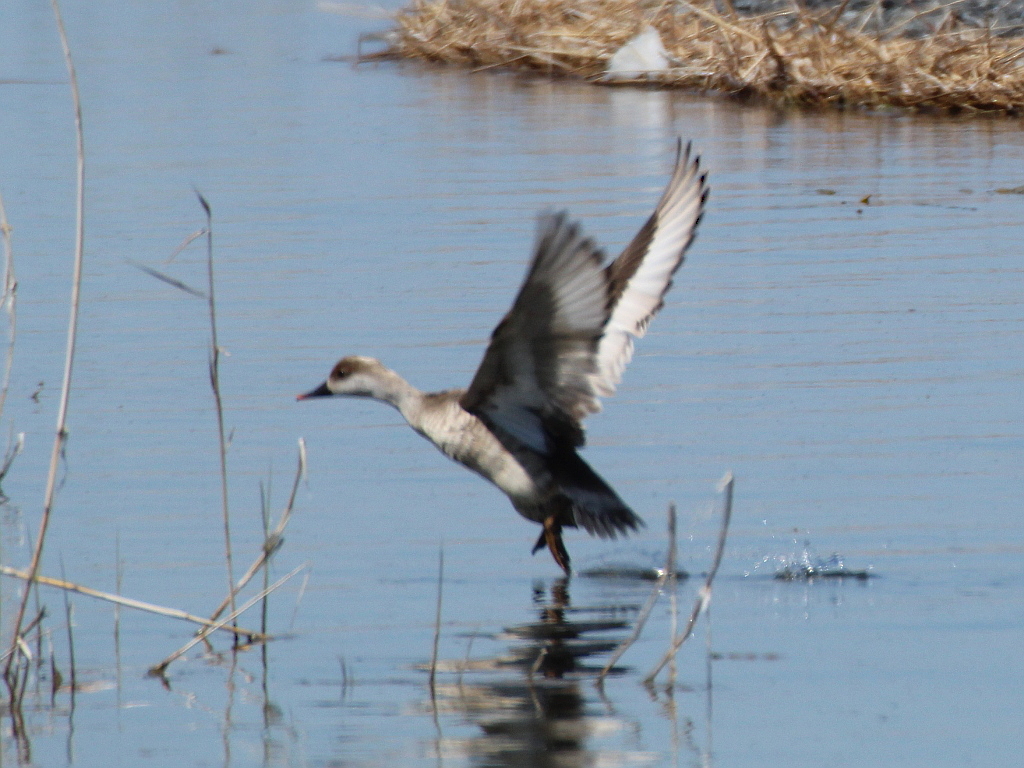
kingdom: Animalia
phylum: Chordata
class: Aves
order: Anseriformes
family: Anatidae
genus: Netta
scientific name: Netta rufina
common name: Red-crested pochard
